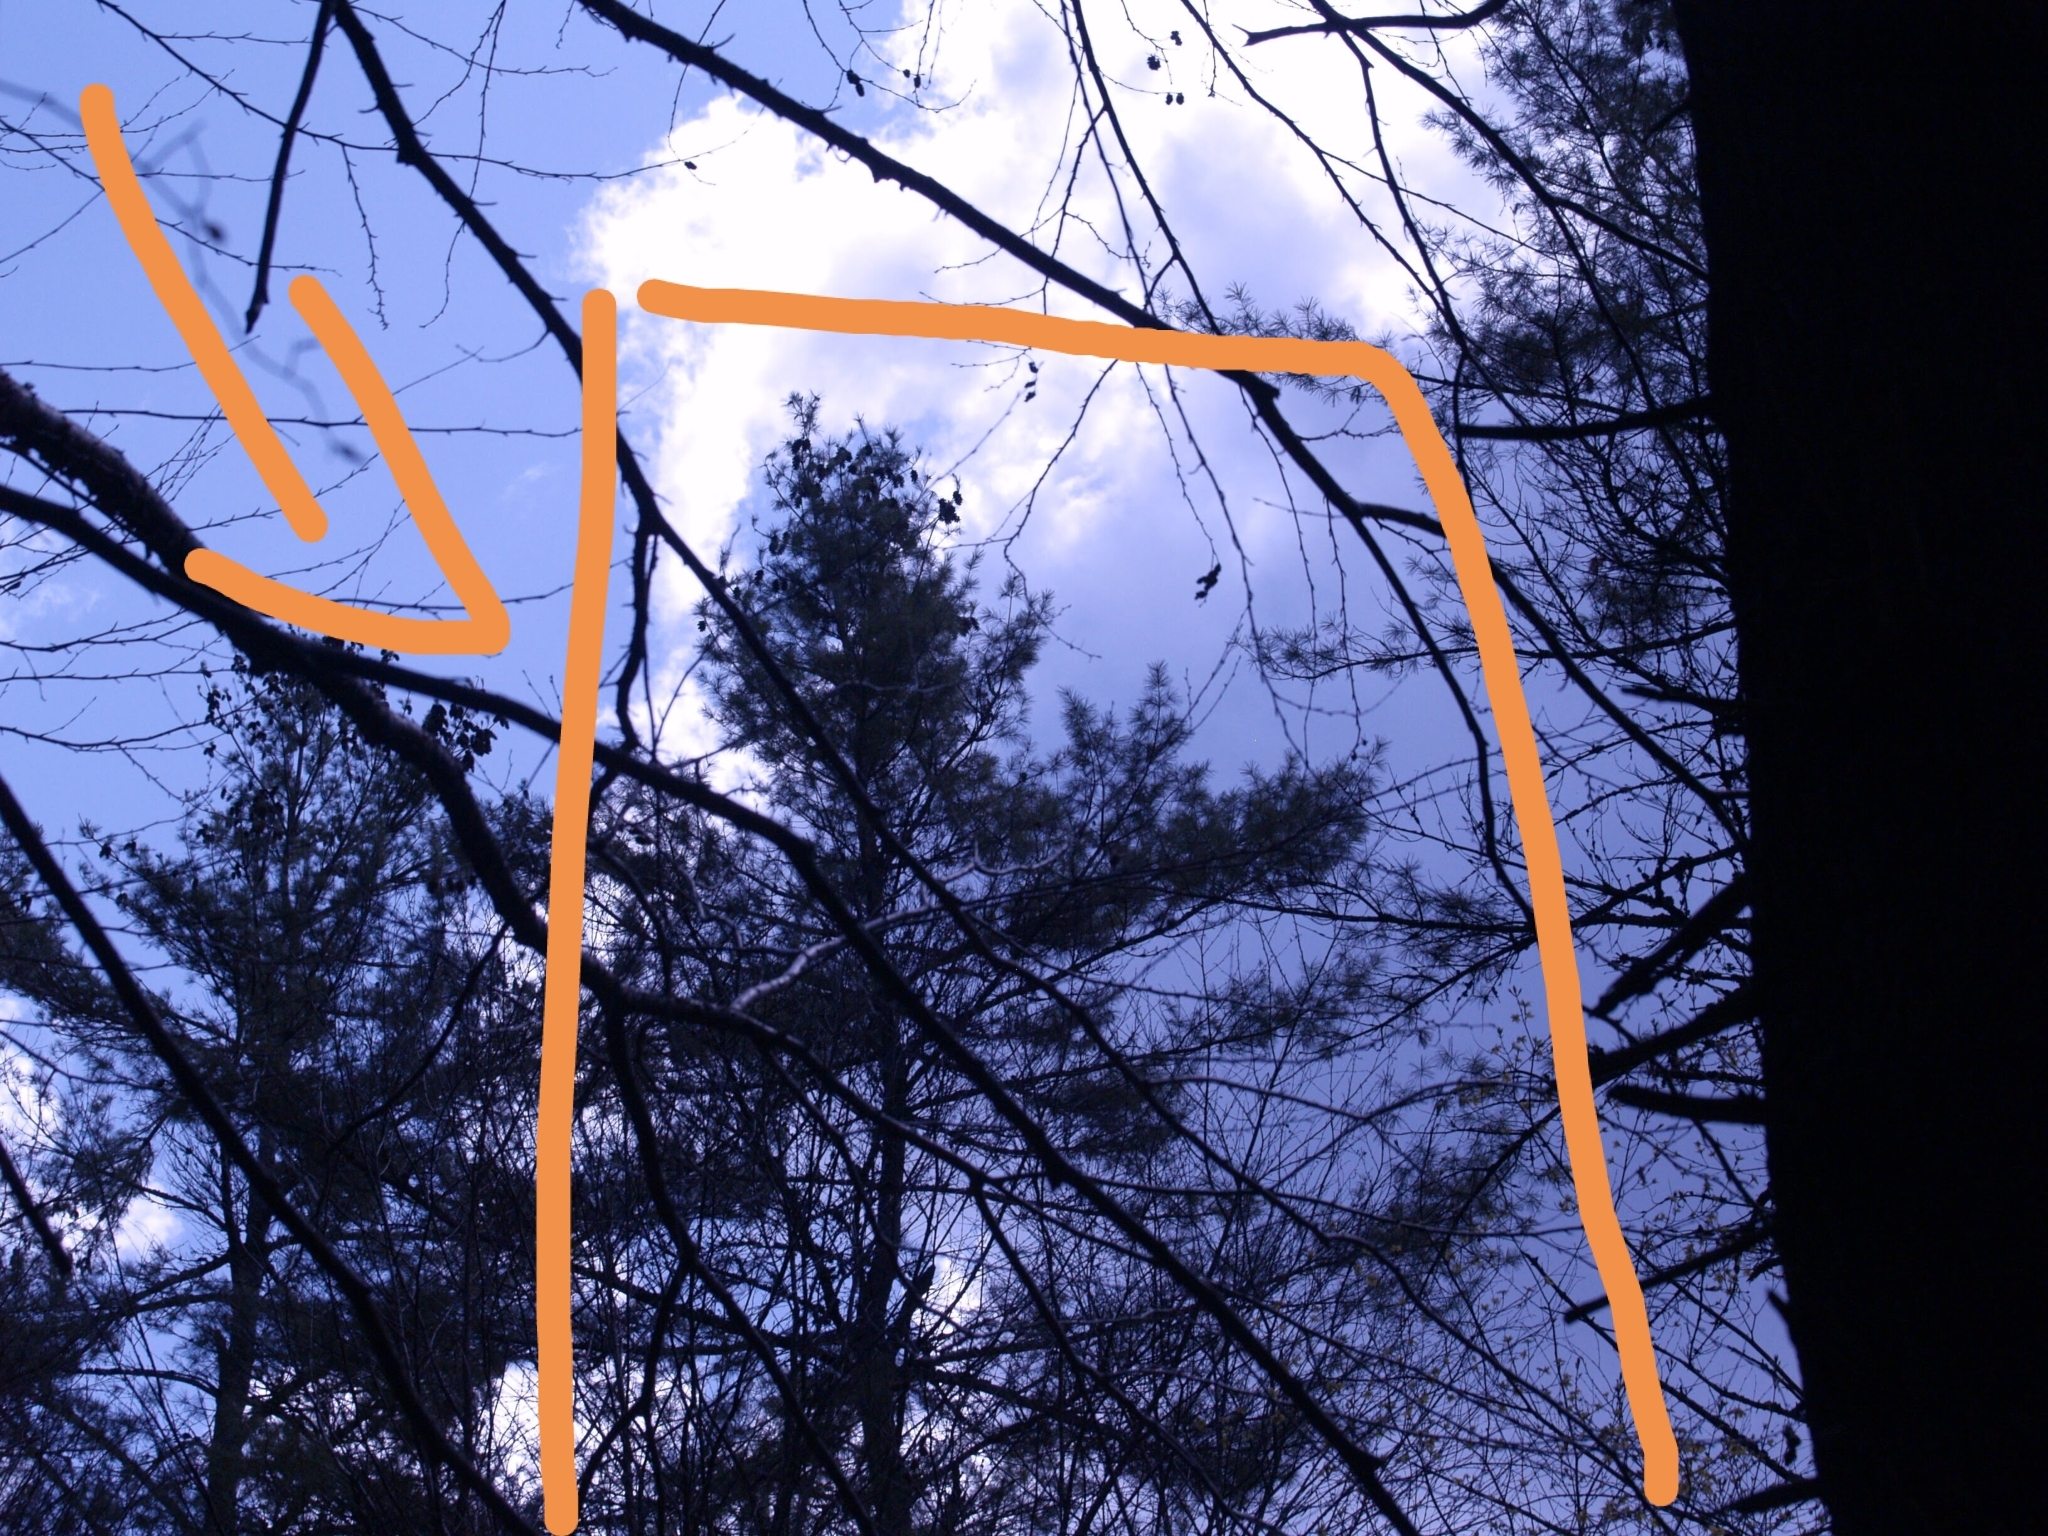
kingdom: Plantae
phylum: Tracheophyta
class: Pinopsida
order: Pinales
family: Pinaceae
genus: Pinus
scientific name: Pinus strobus
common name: Weymouth pine
